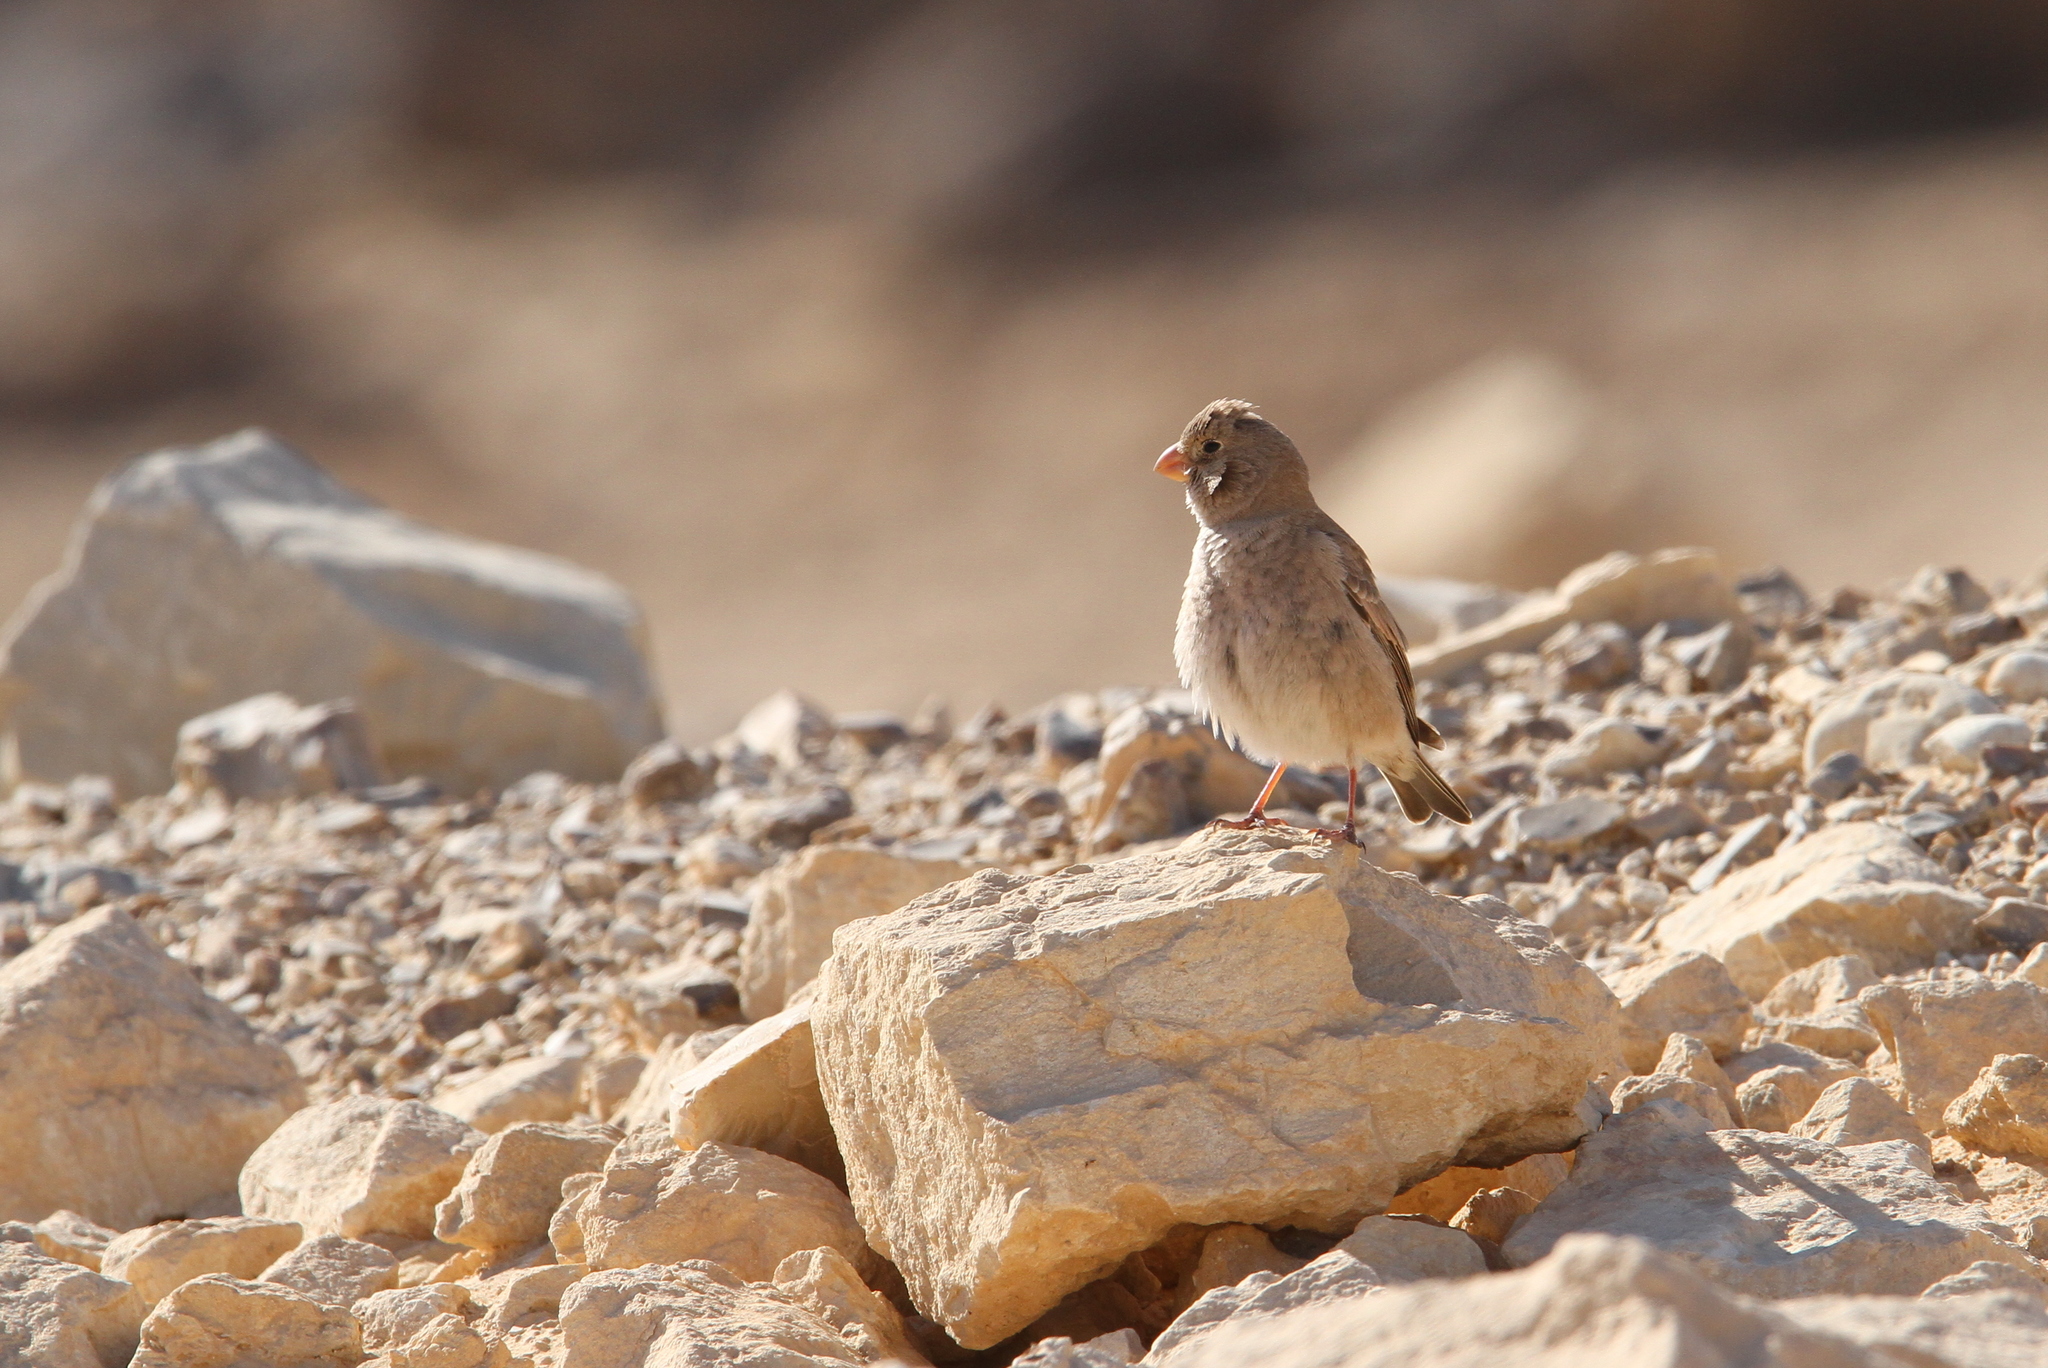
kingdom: Animalia
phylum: Chordata
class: Aves
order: Passeriformes
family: Fringillidae
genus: Bucanetes
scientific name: Bucanetes githagineus
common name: Trumpeter finch
